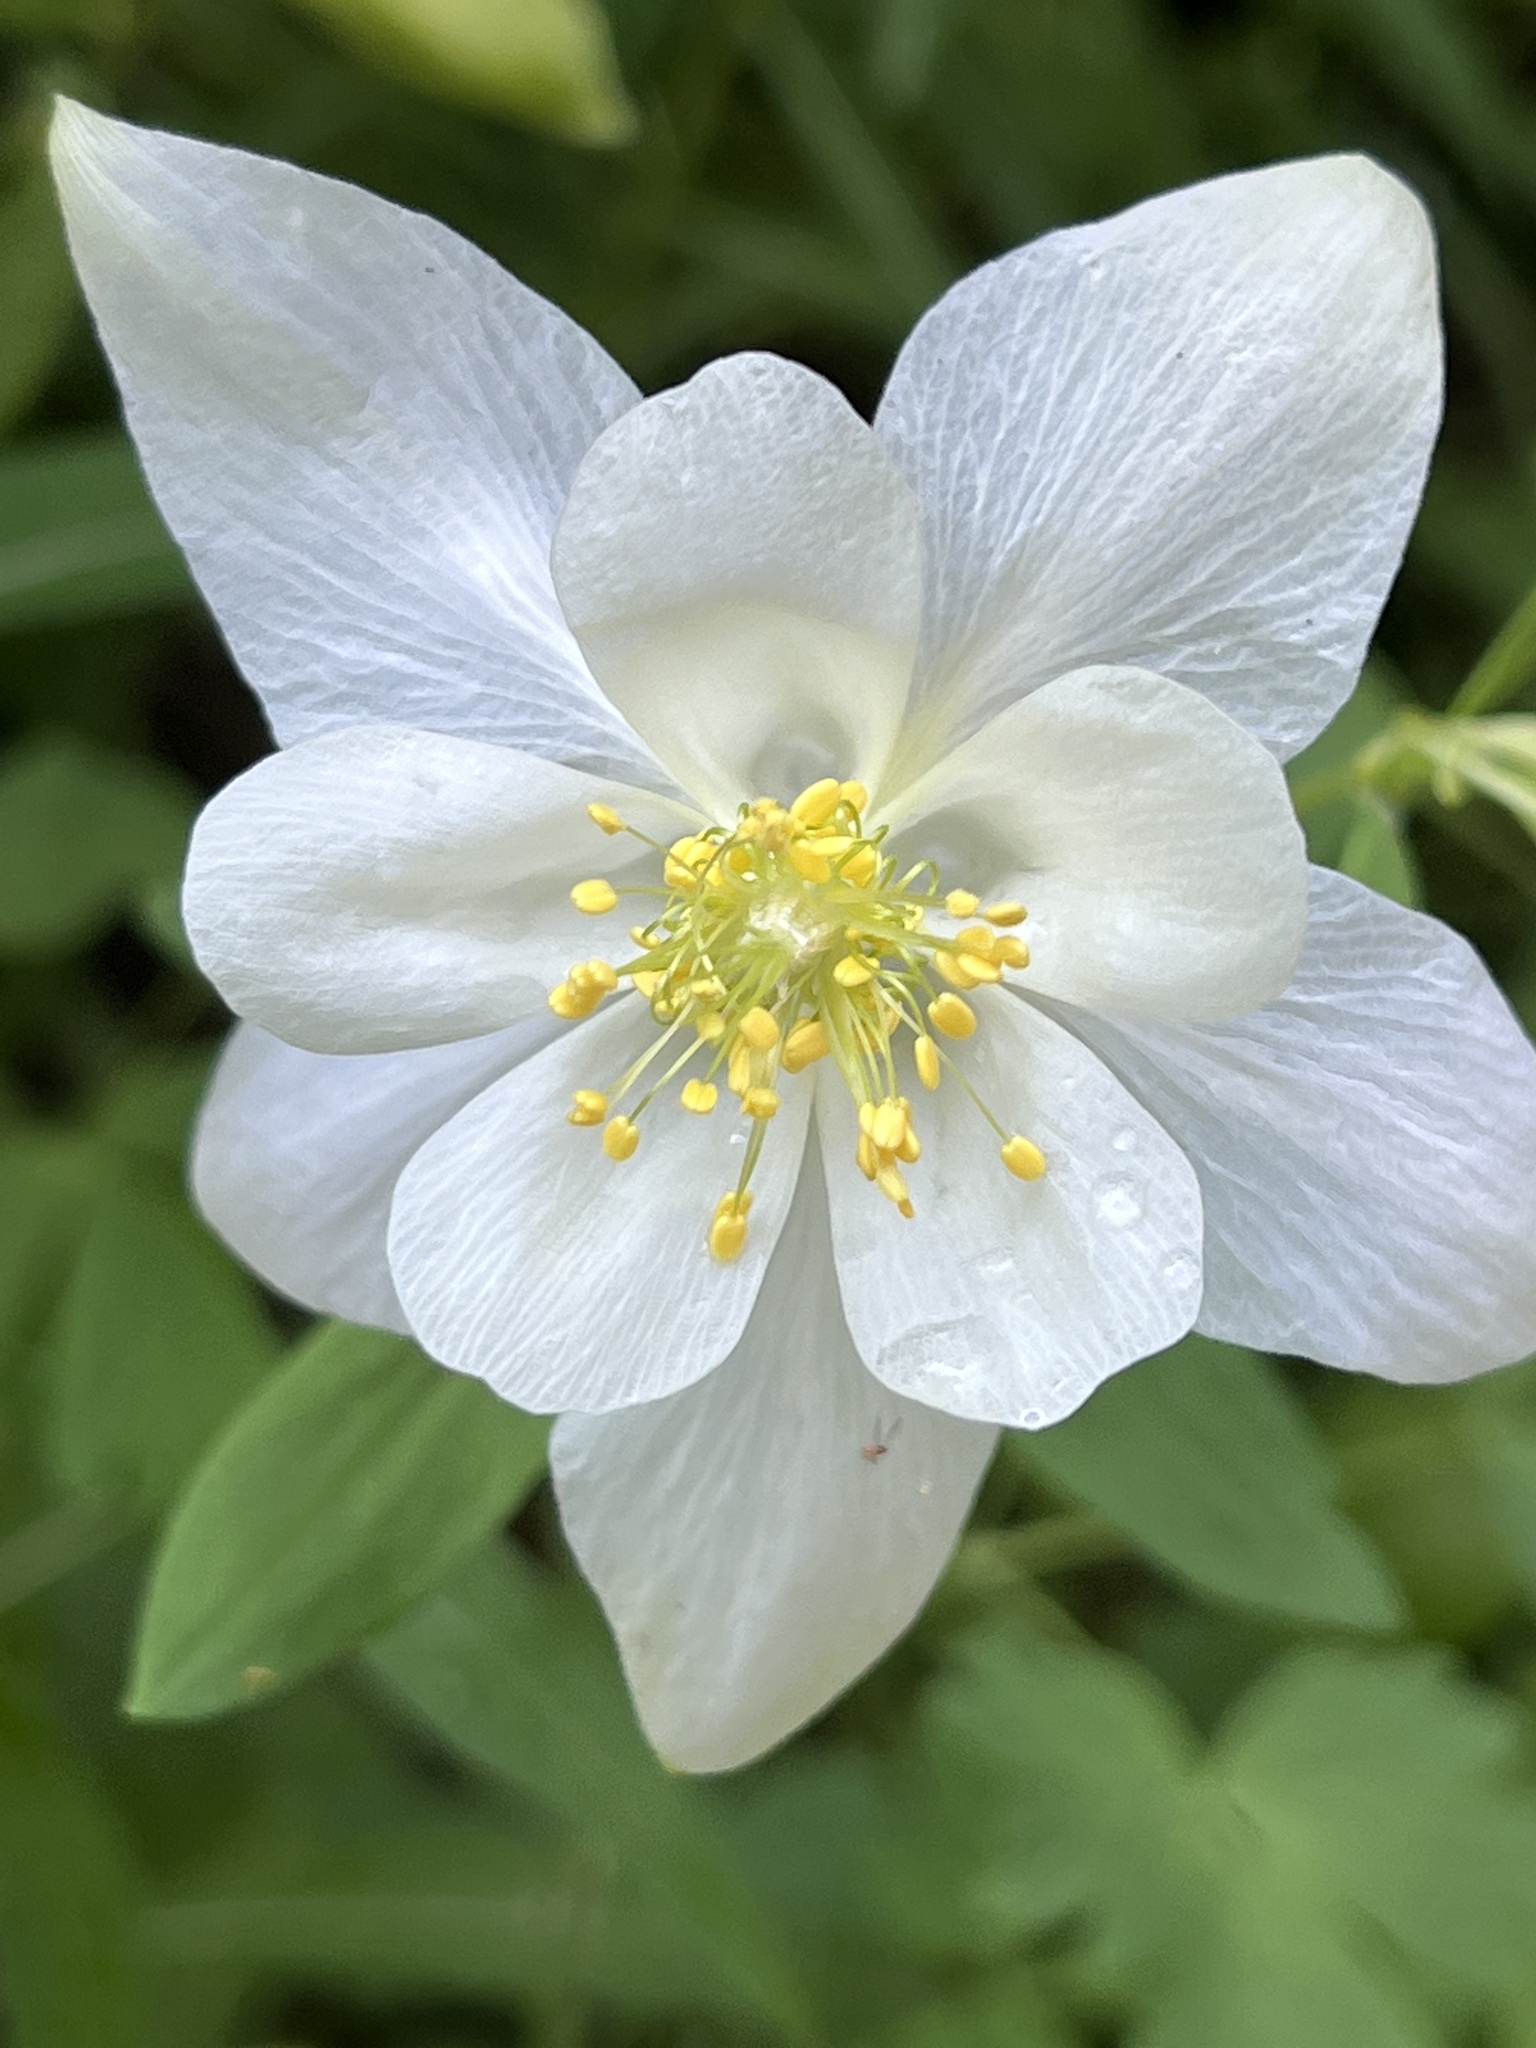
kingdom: Plantae
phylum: Tracheophyta
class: Magnoliopsida
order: Ranunculales
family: Ranunculaceae
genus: Aquilegia
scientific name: Aquilegia coerulea
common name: Rocky mountain columbine
